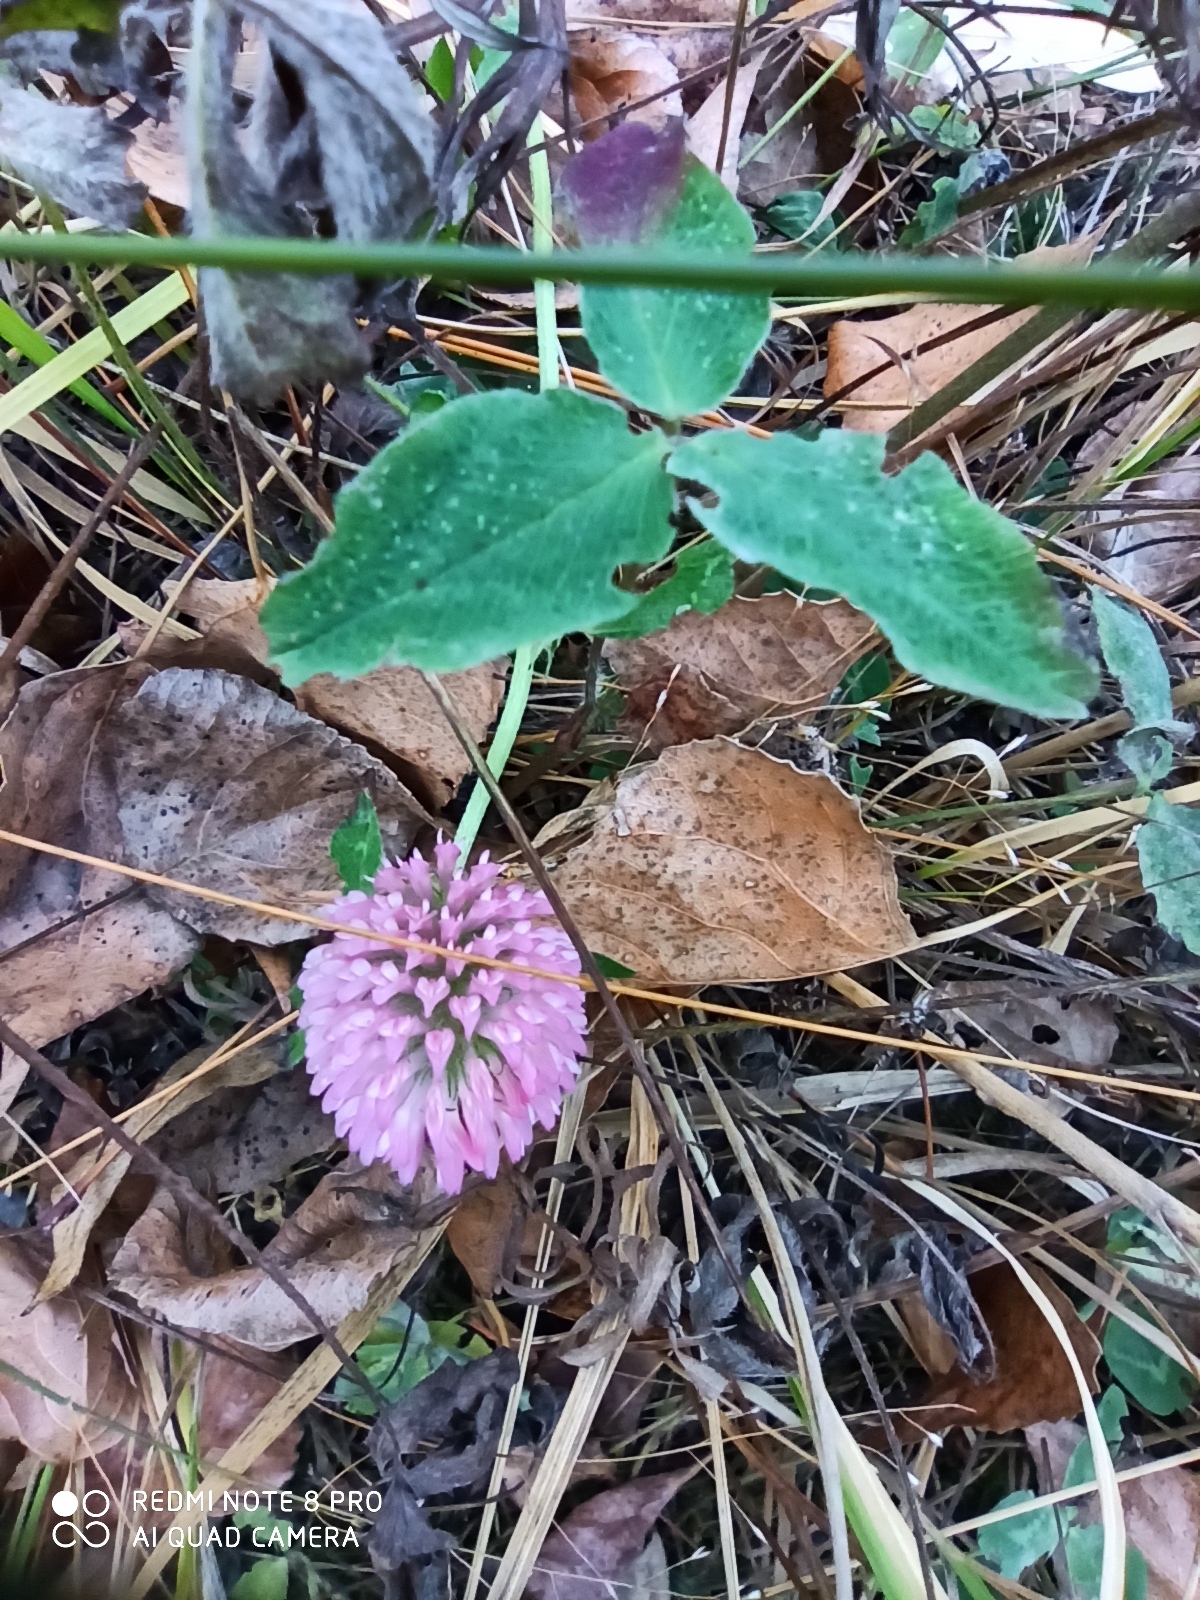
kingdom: Plantae
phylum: Tracheophyta
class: Magnoliopsida
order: Fabales
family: Fabaceae
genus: Trifolium
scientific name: Trifolium pratense
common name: Red clover
